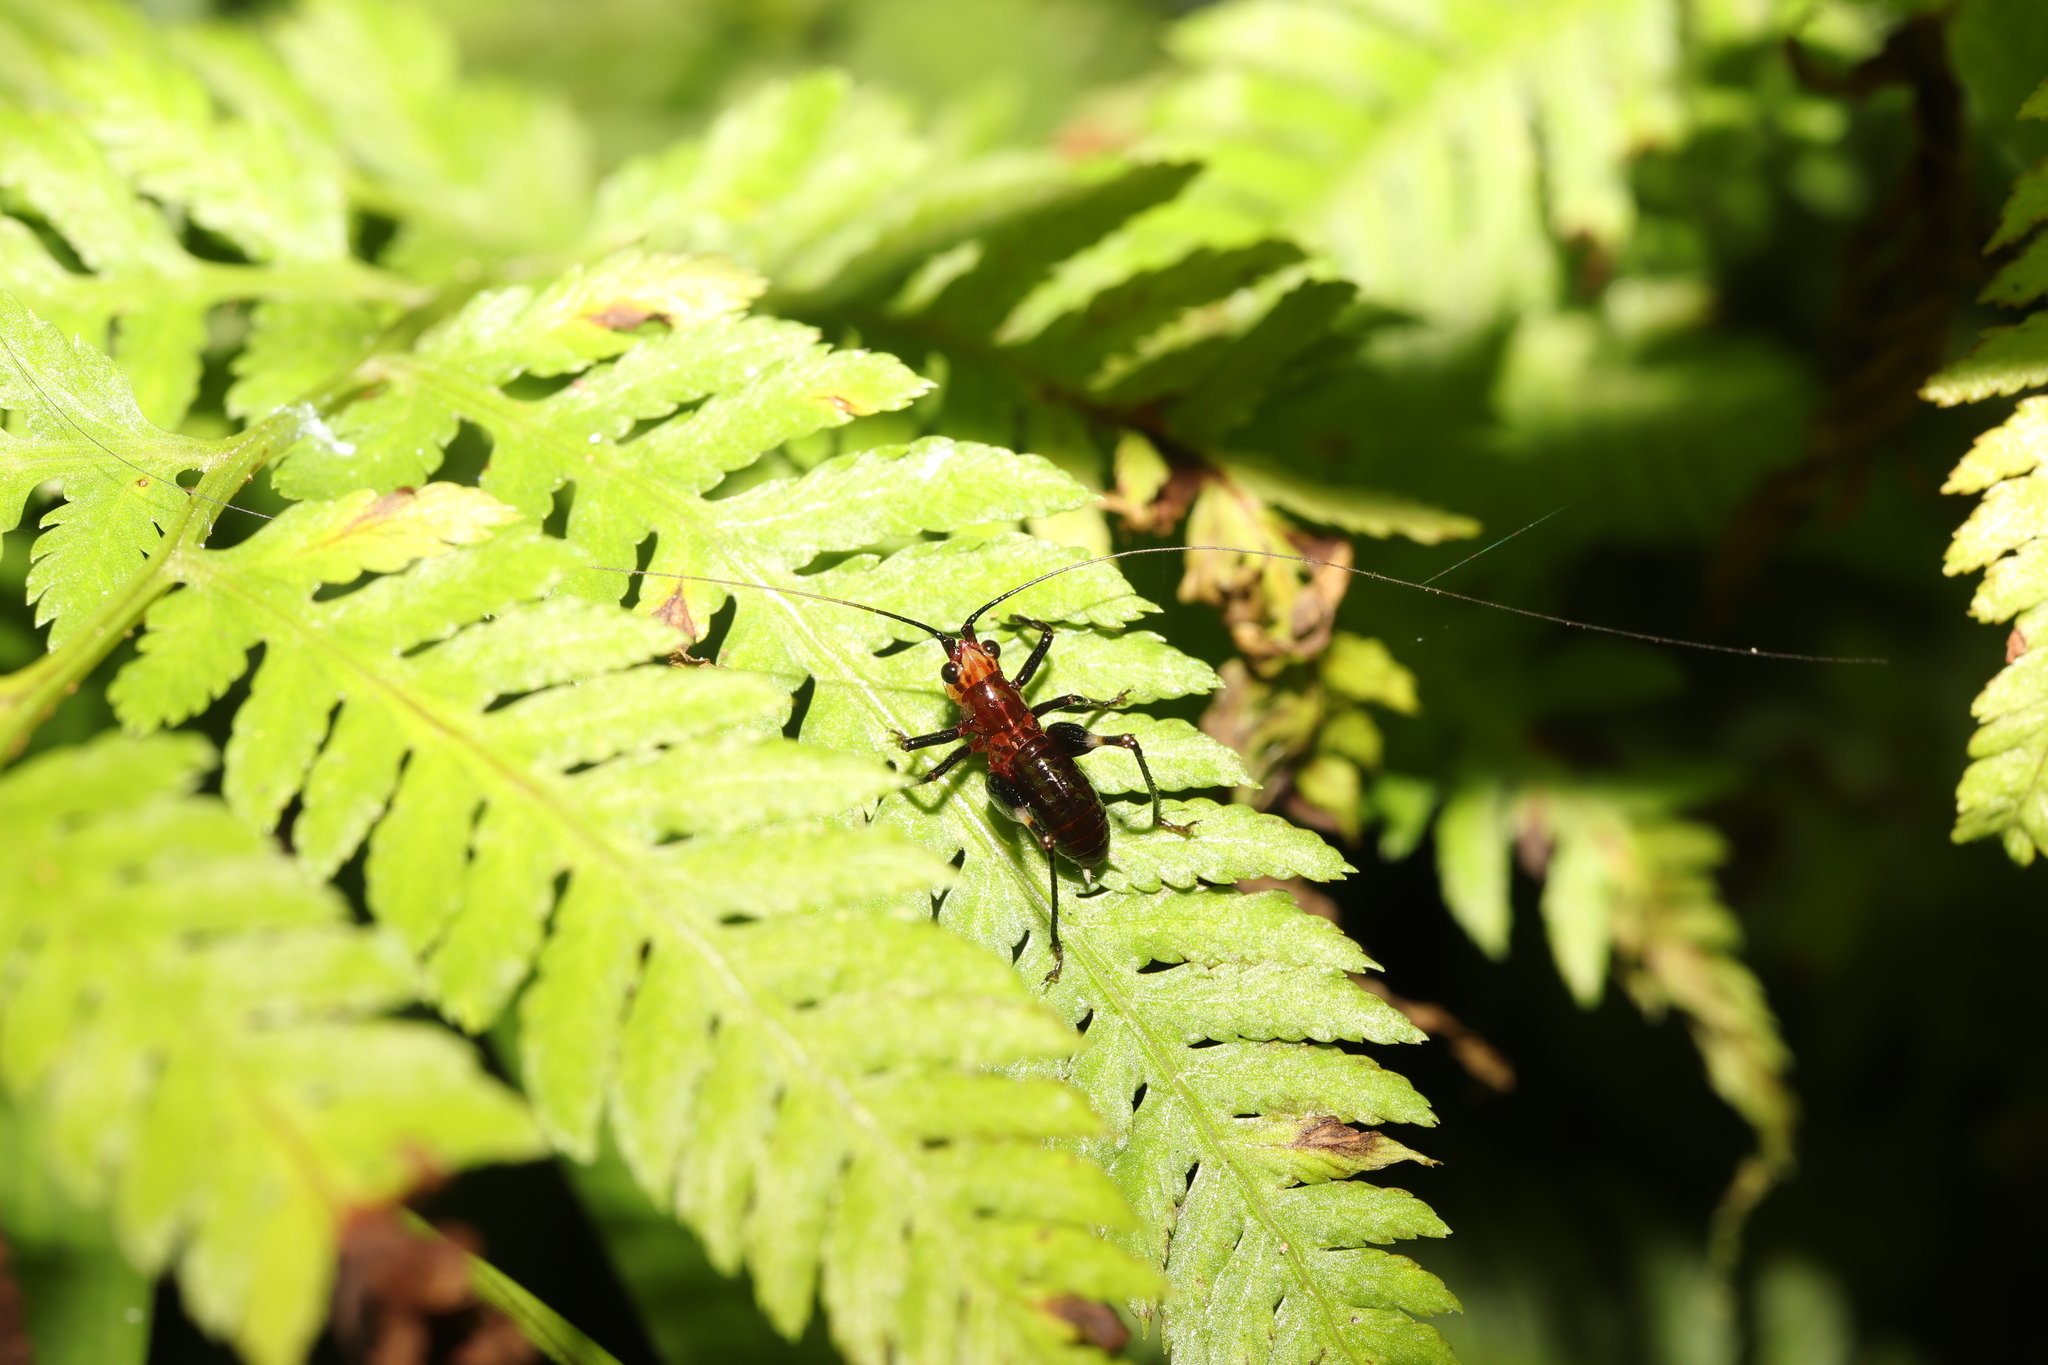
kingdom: Animalia
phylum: Arthropoda
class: Insecta
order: Orthoptera
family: Tettigoniidae
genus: Conocephalus
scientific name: Conocephalus melaenus
